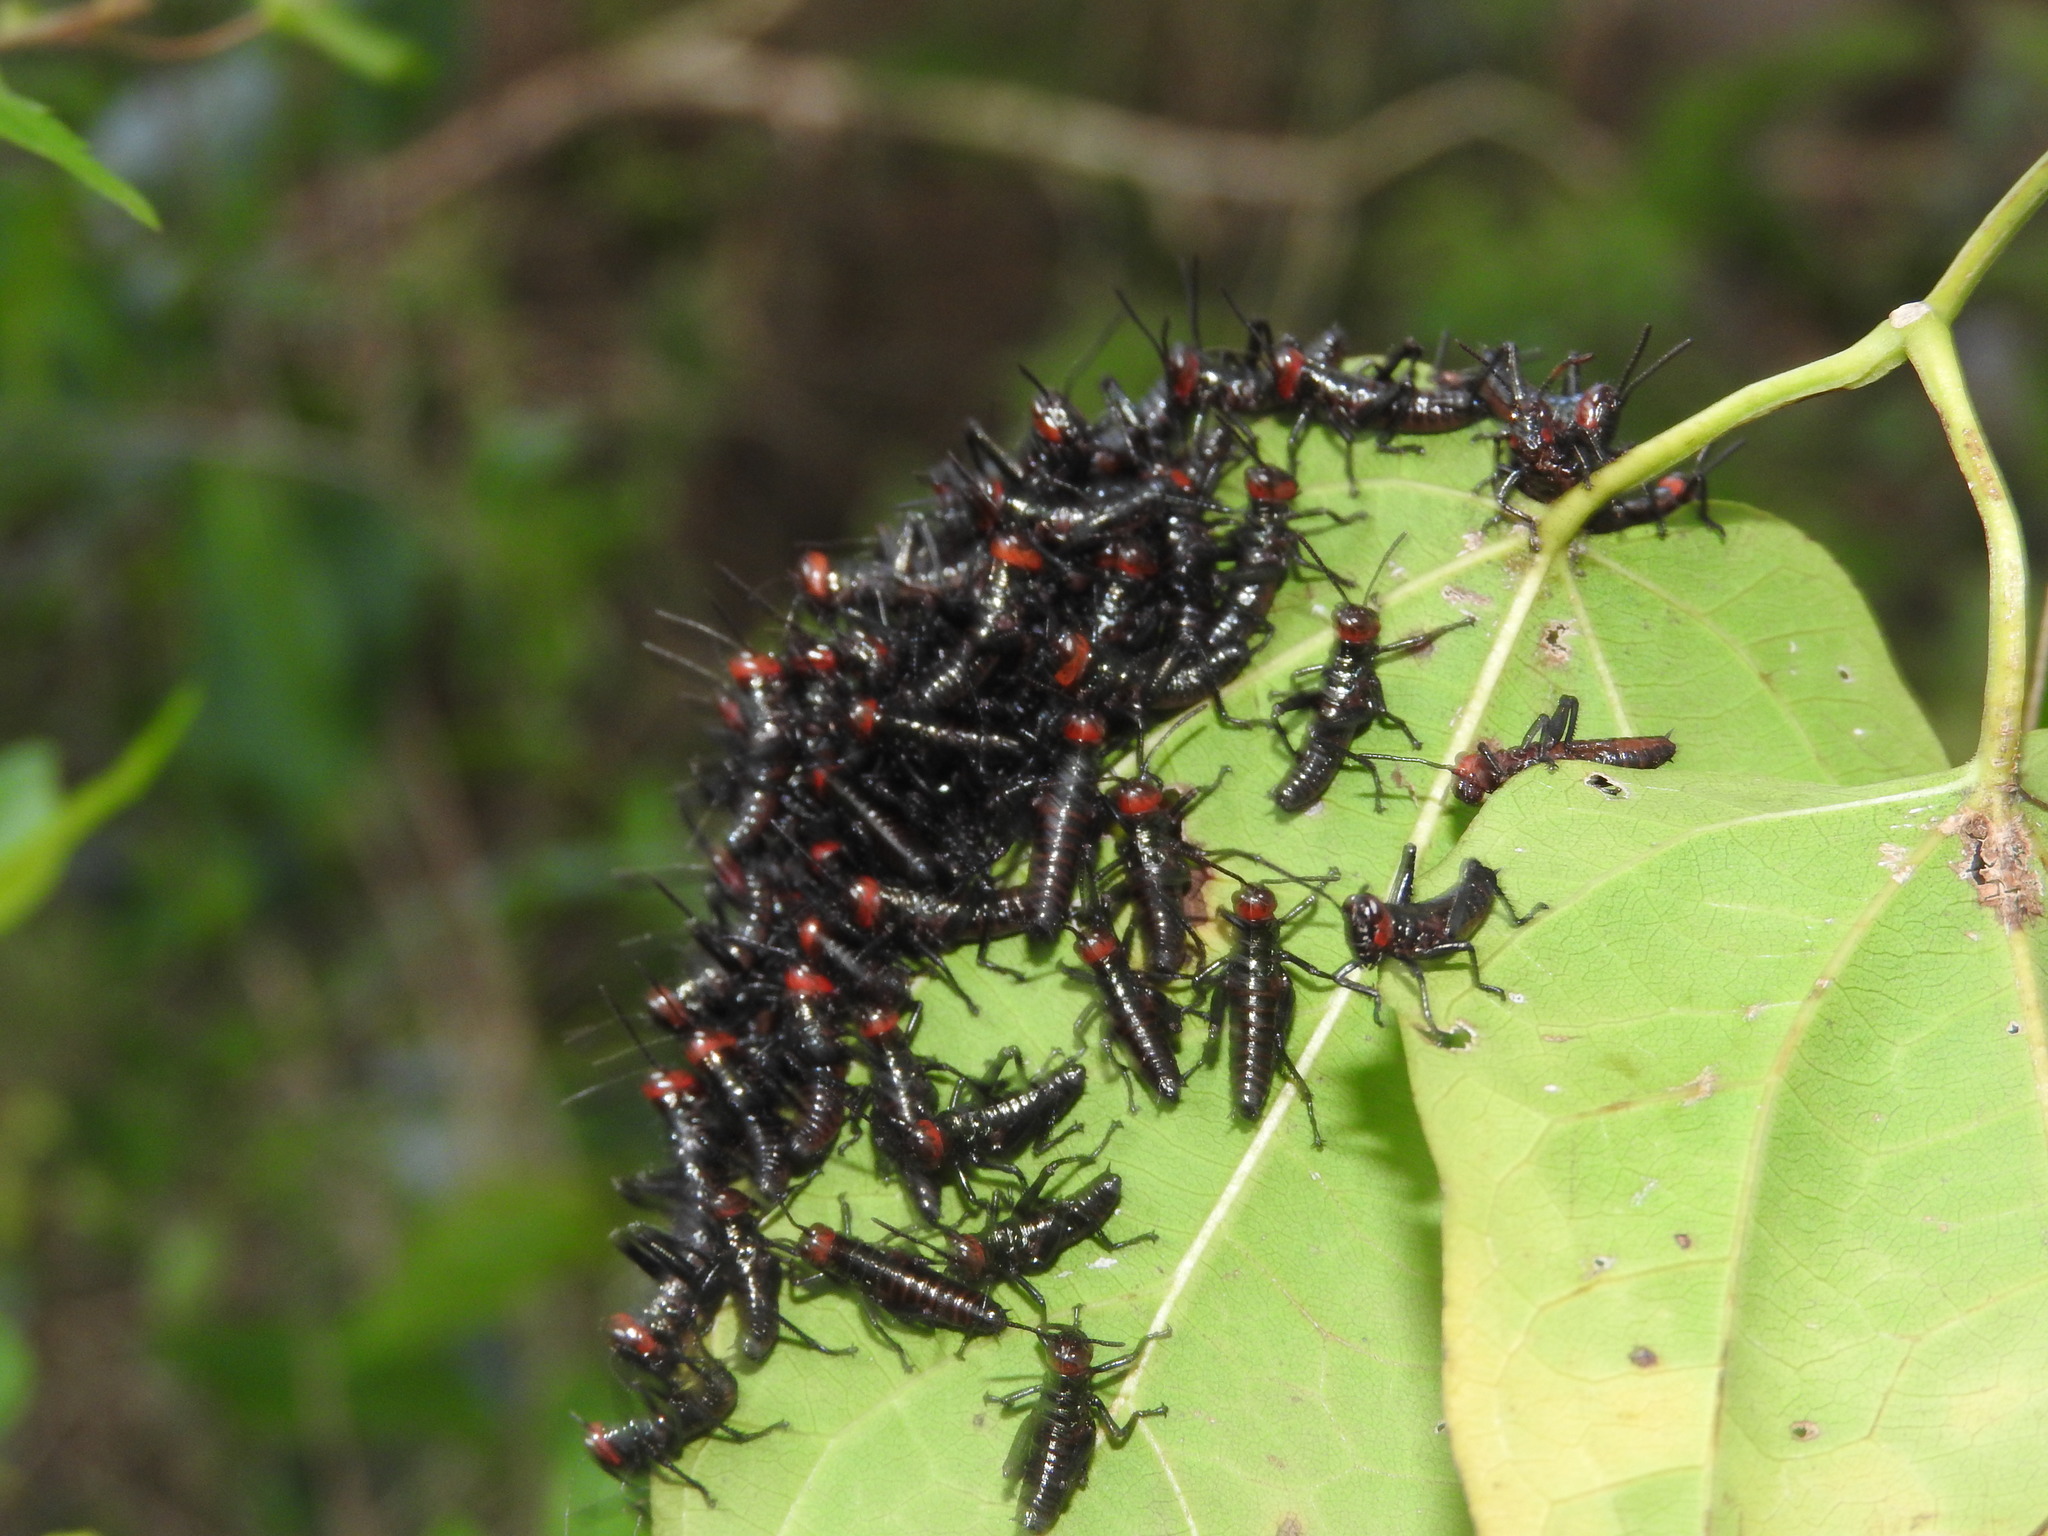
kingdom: Animalia
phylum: Arthropoda
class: Insecta
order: Orthoptera
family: Romaleidae
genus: Chromacris
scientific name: Chromacris miles
